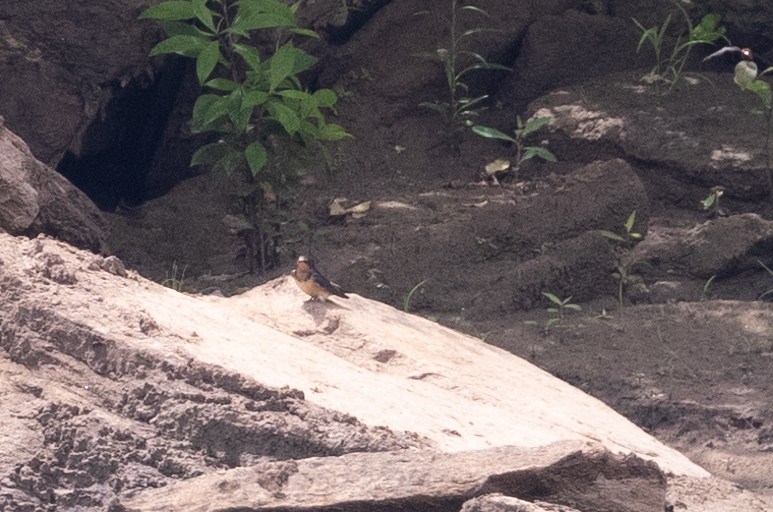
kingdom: Animalia
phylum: Chordata
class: Aves
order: Passeriformes
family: Hirundinidae
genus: Hirundo
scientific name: Hirundo rustica
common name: Barn swallow
